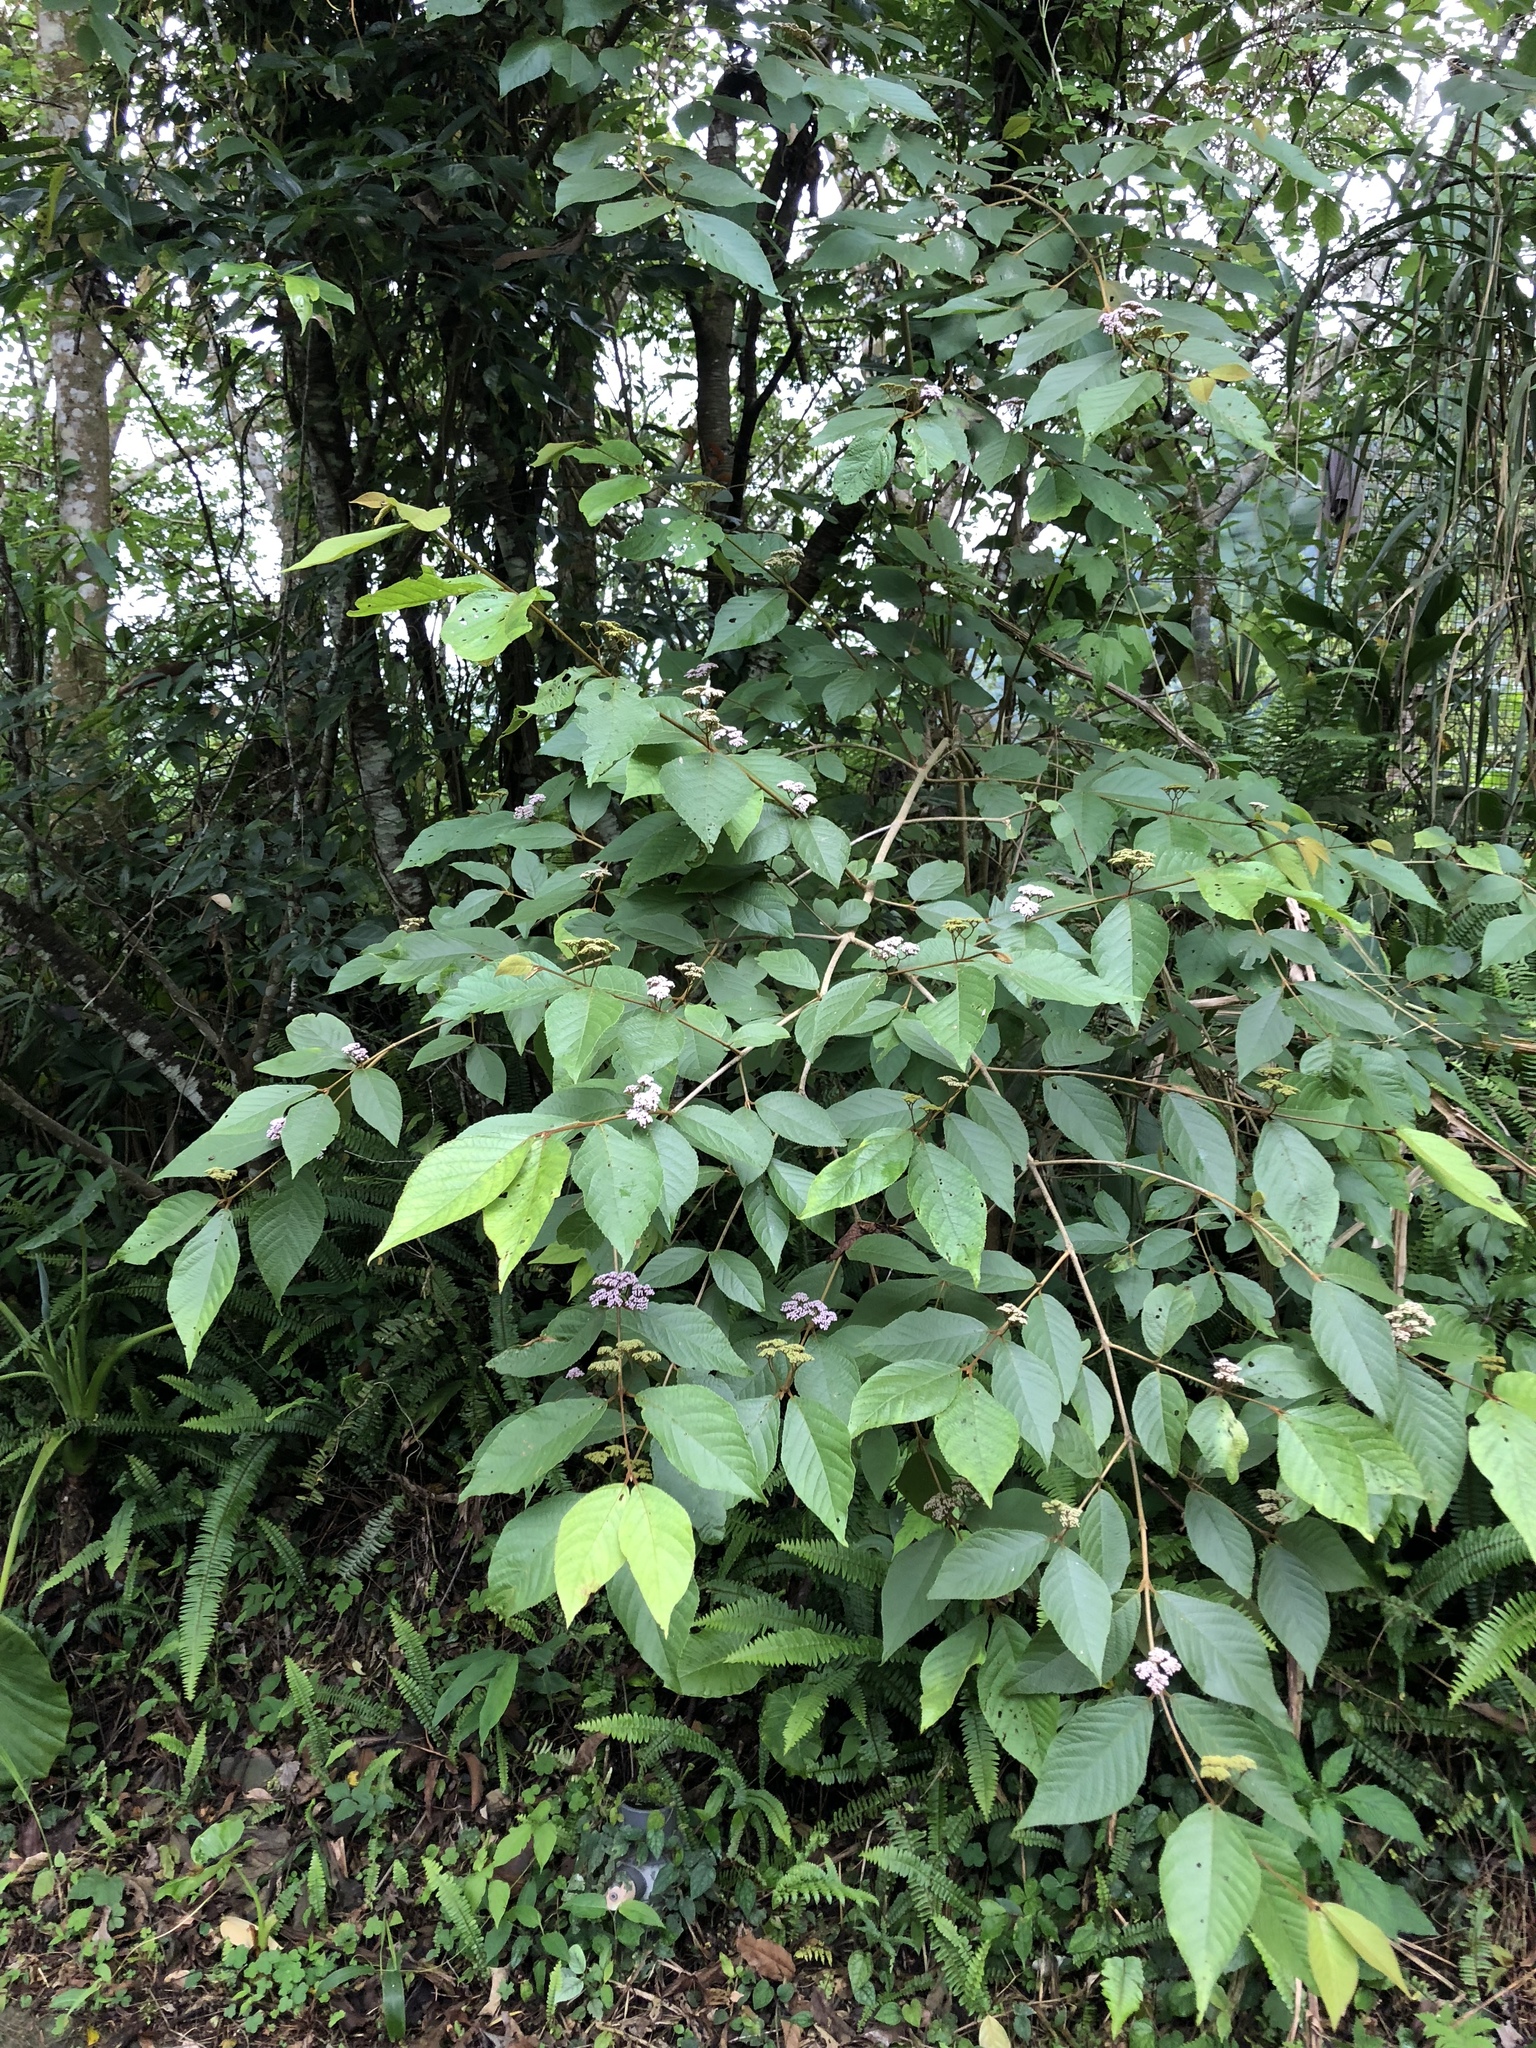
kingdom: Plantae
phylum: Tracheophyta
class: Magnoliopsida
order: Lamiales
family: Lamiaceae
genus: Callicarpa
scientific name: Callicarpa pedunculata
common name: Velvetleaf
